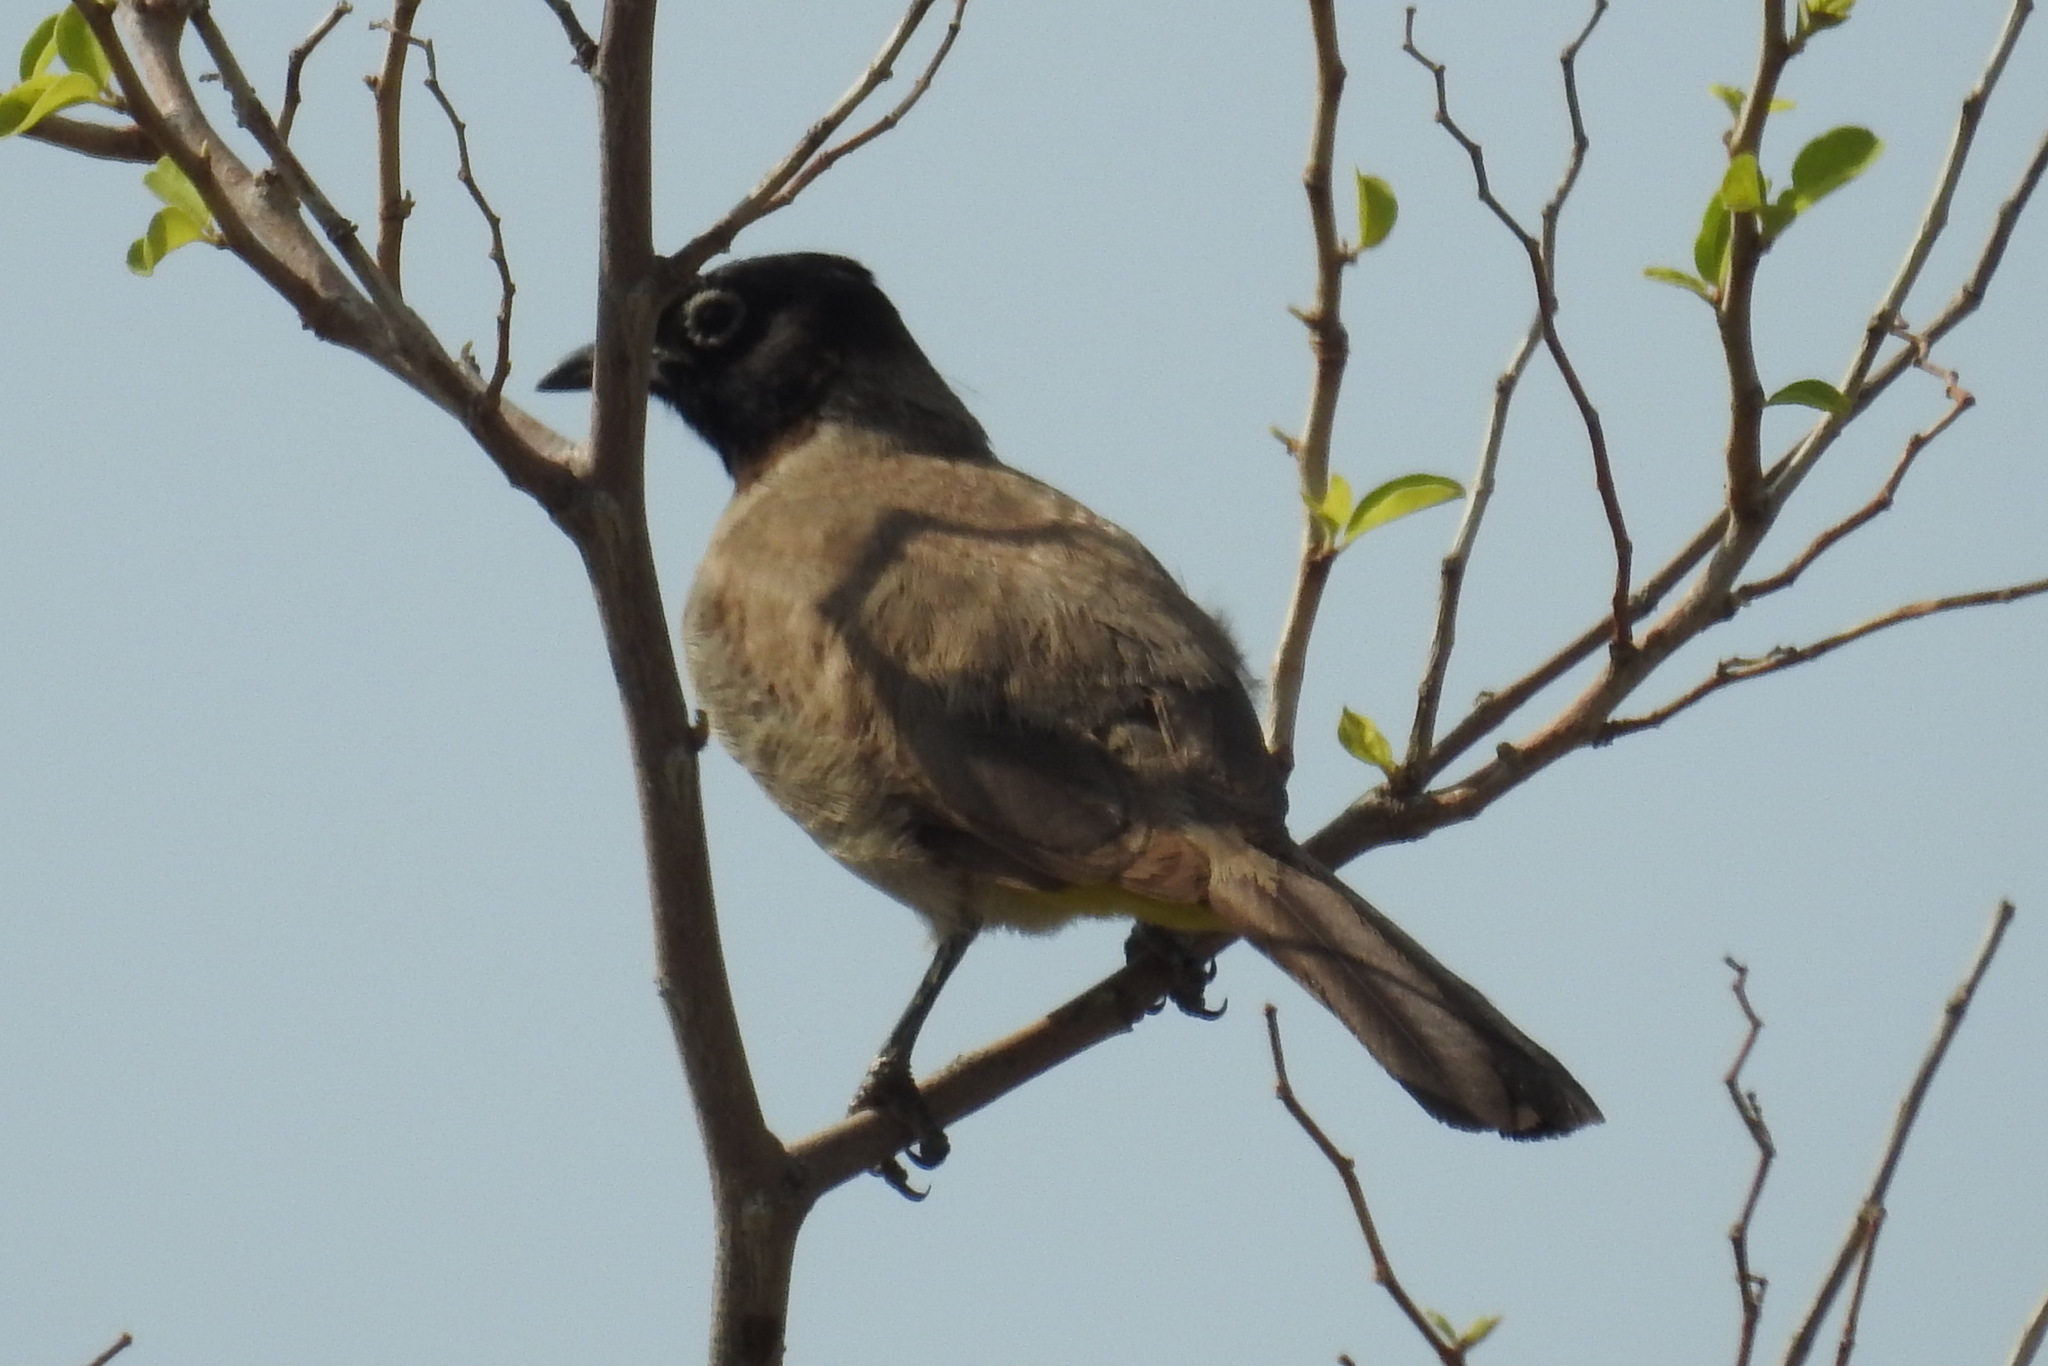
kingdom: Animalia
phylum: Chordata
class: Aves
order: Passeriformes
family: Pycnonotidae
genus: Pycnonotus
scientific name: Pycnonotus xanthopygos
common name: White-spectacled bulbul
